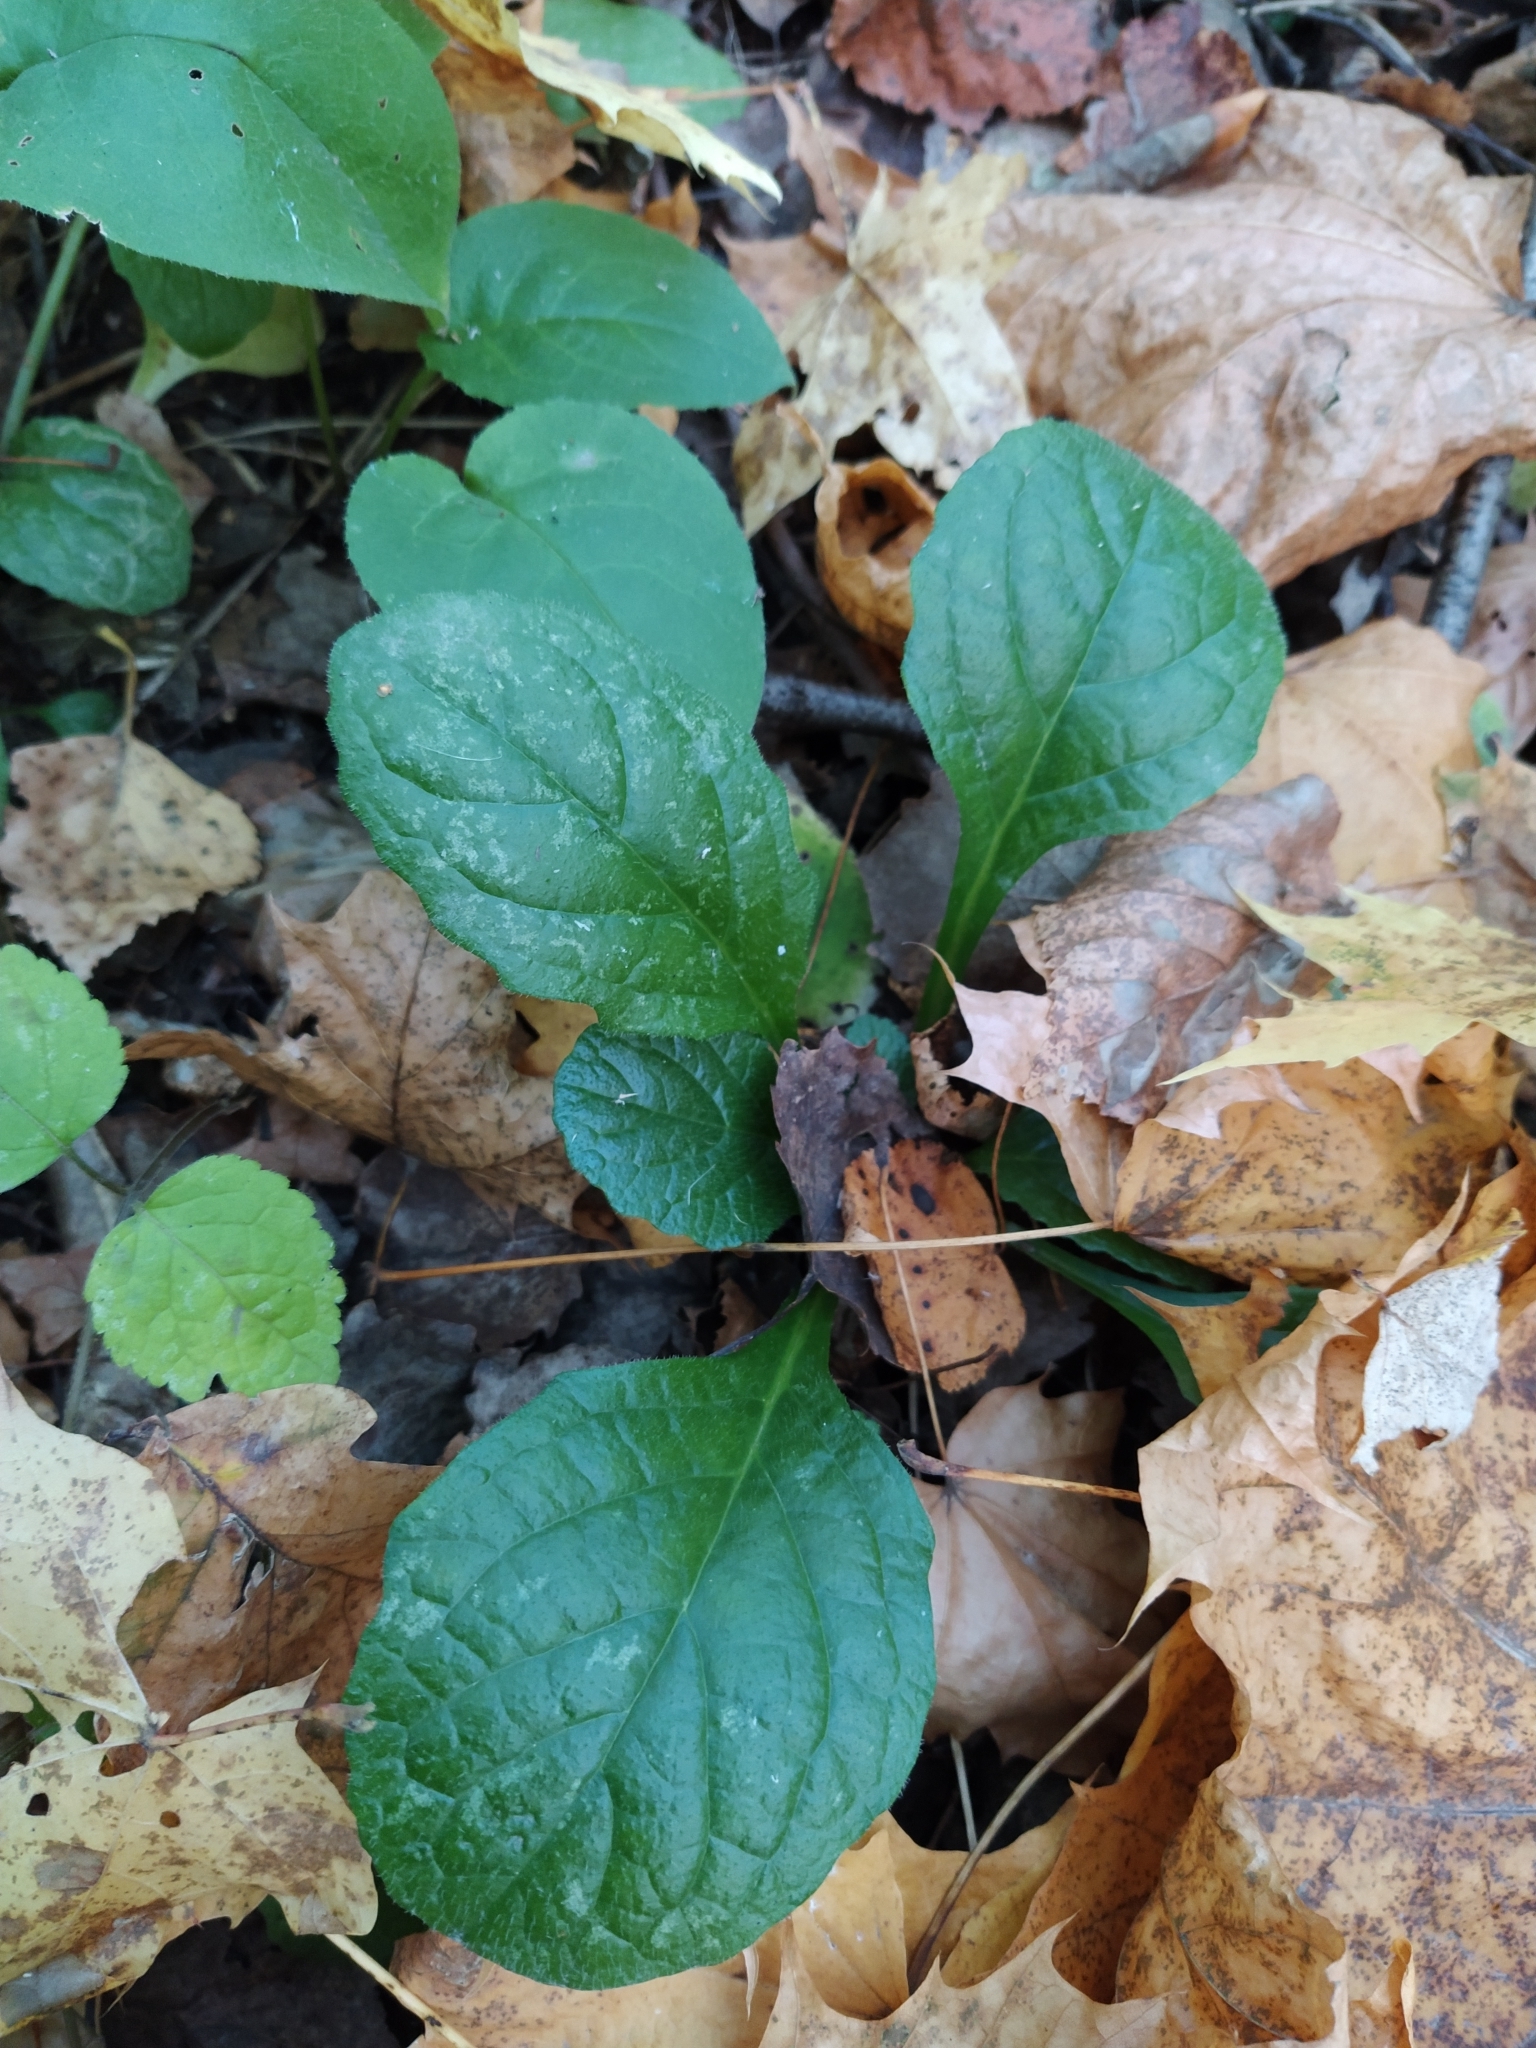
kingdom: Plantae
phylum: Tracheophyta
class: Magnoliopsida
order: Lamiales
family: Lamiaceae
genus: Ajuga
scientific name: Ajuga reptans
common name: Bugle
